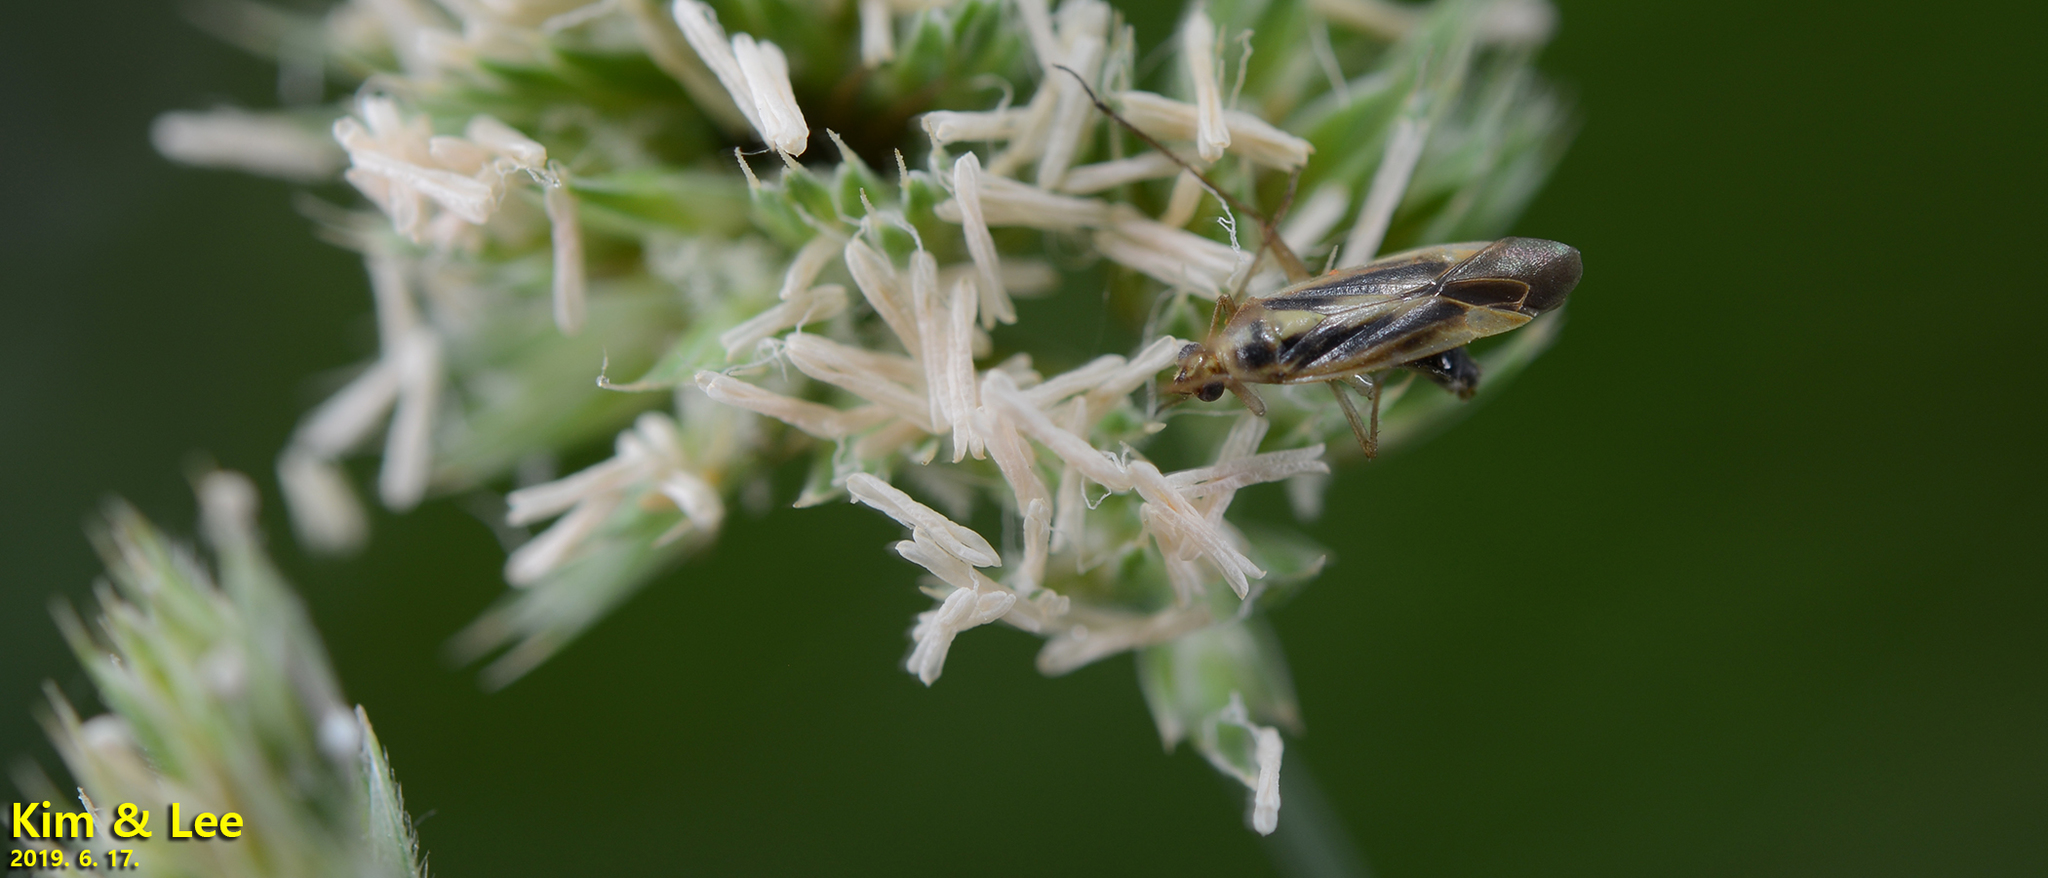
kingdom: Animalia
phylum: Arthropoda
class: Insecta
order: Hemiptera
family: Miridae
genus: Stenotus
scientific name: Stenotus binotatus
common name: Plant bug
